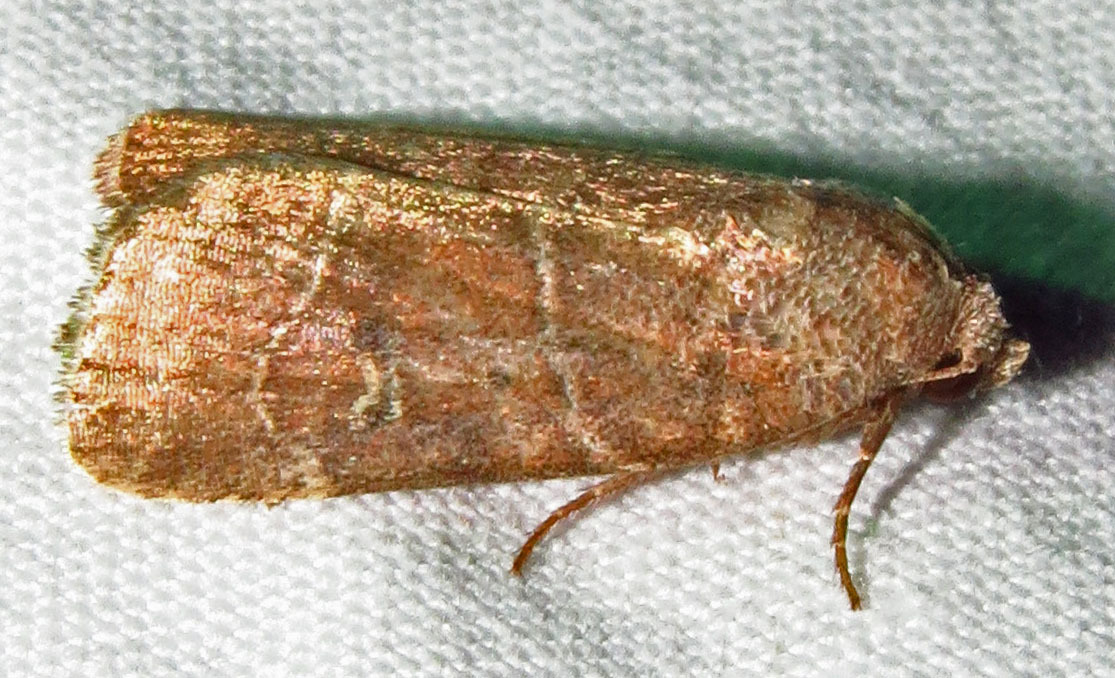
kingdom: Animalia
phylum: Arthropoda
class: Insecta
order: Lepidoptera
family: Noctuidae
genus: Elaphria
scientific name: Elaphria grata
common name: Grateful midget moth
